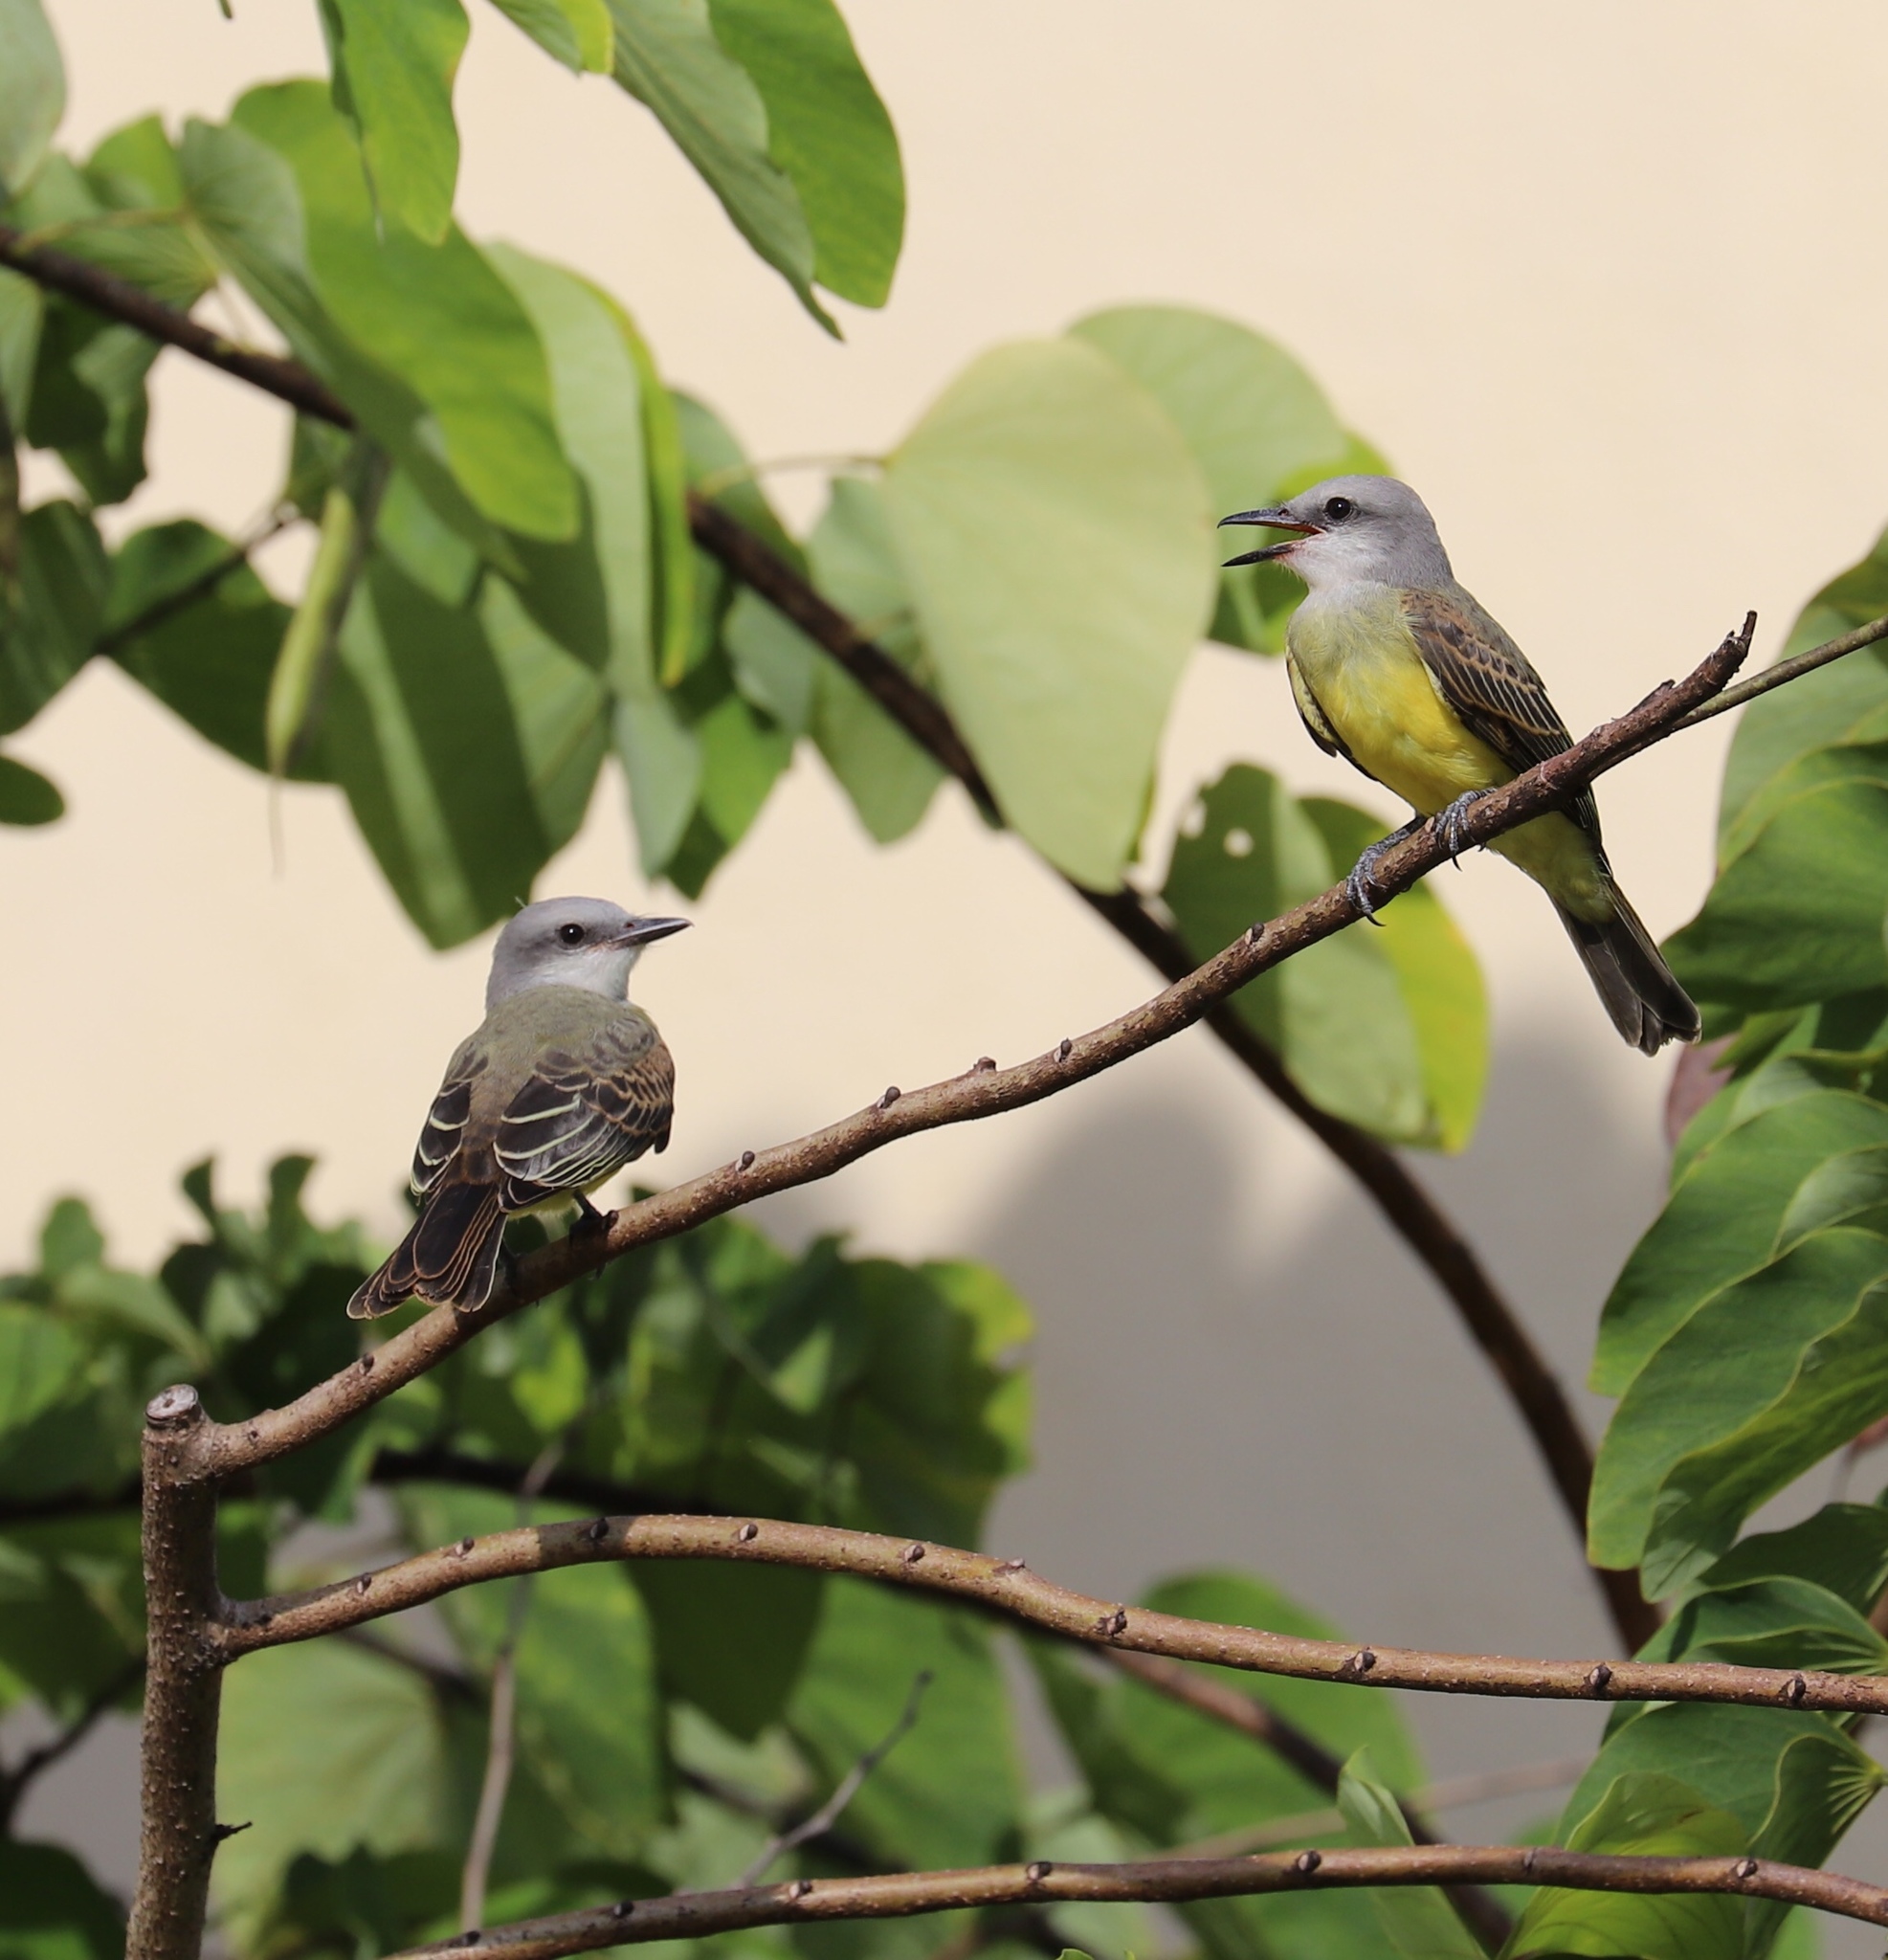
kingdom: Animalia
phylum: Chordata
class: Aves
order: Passeriformes
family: Tyrannidae
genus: Tyrannus
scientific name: Tyrannus melancholicus
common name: Tropical kingbird
